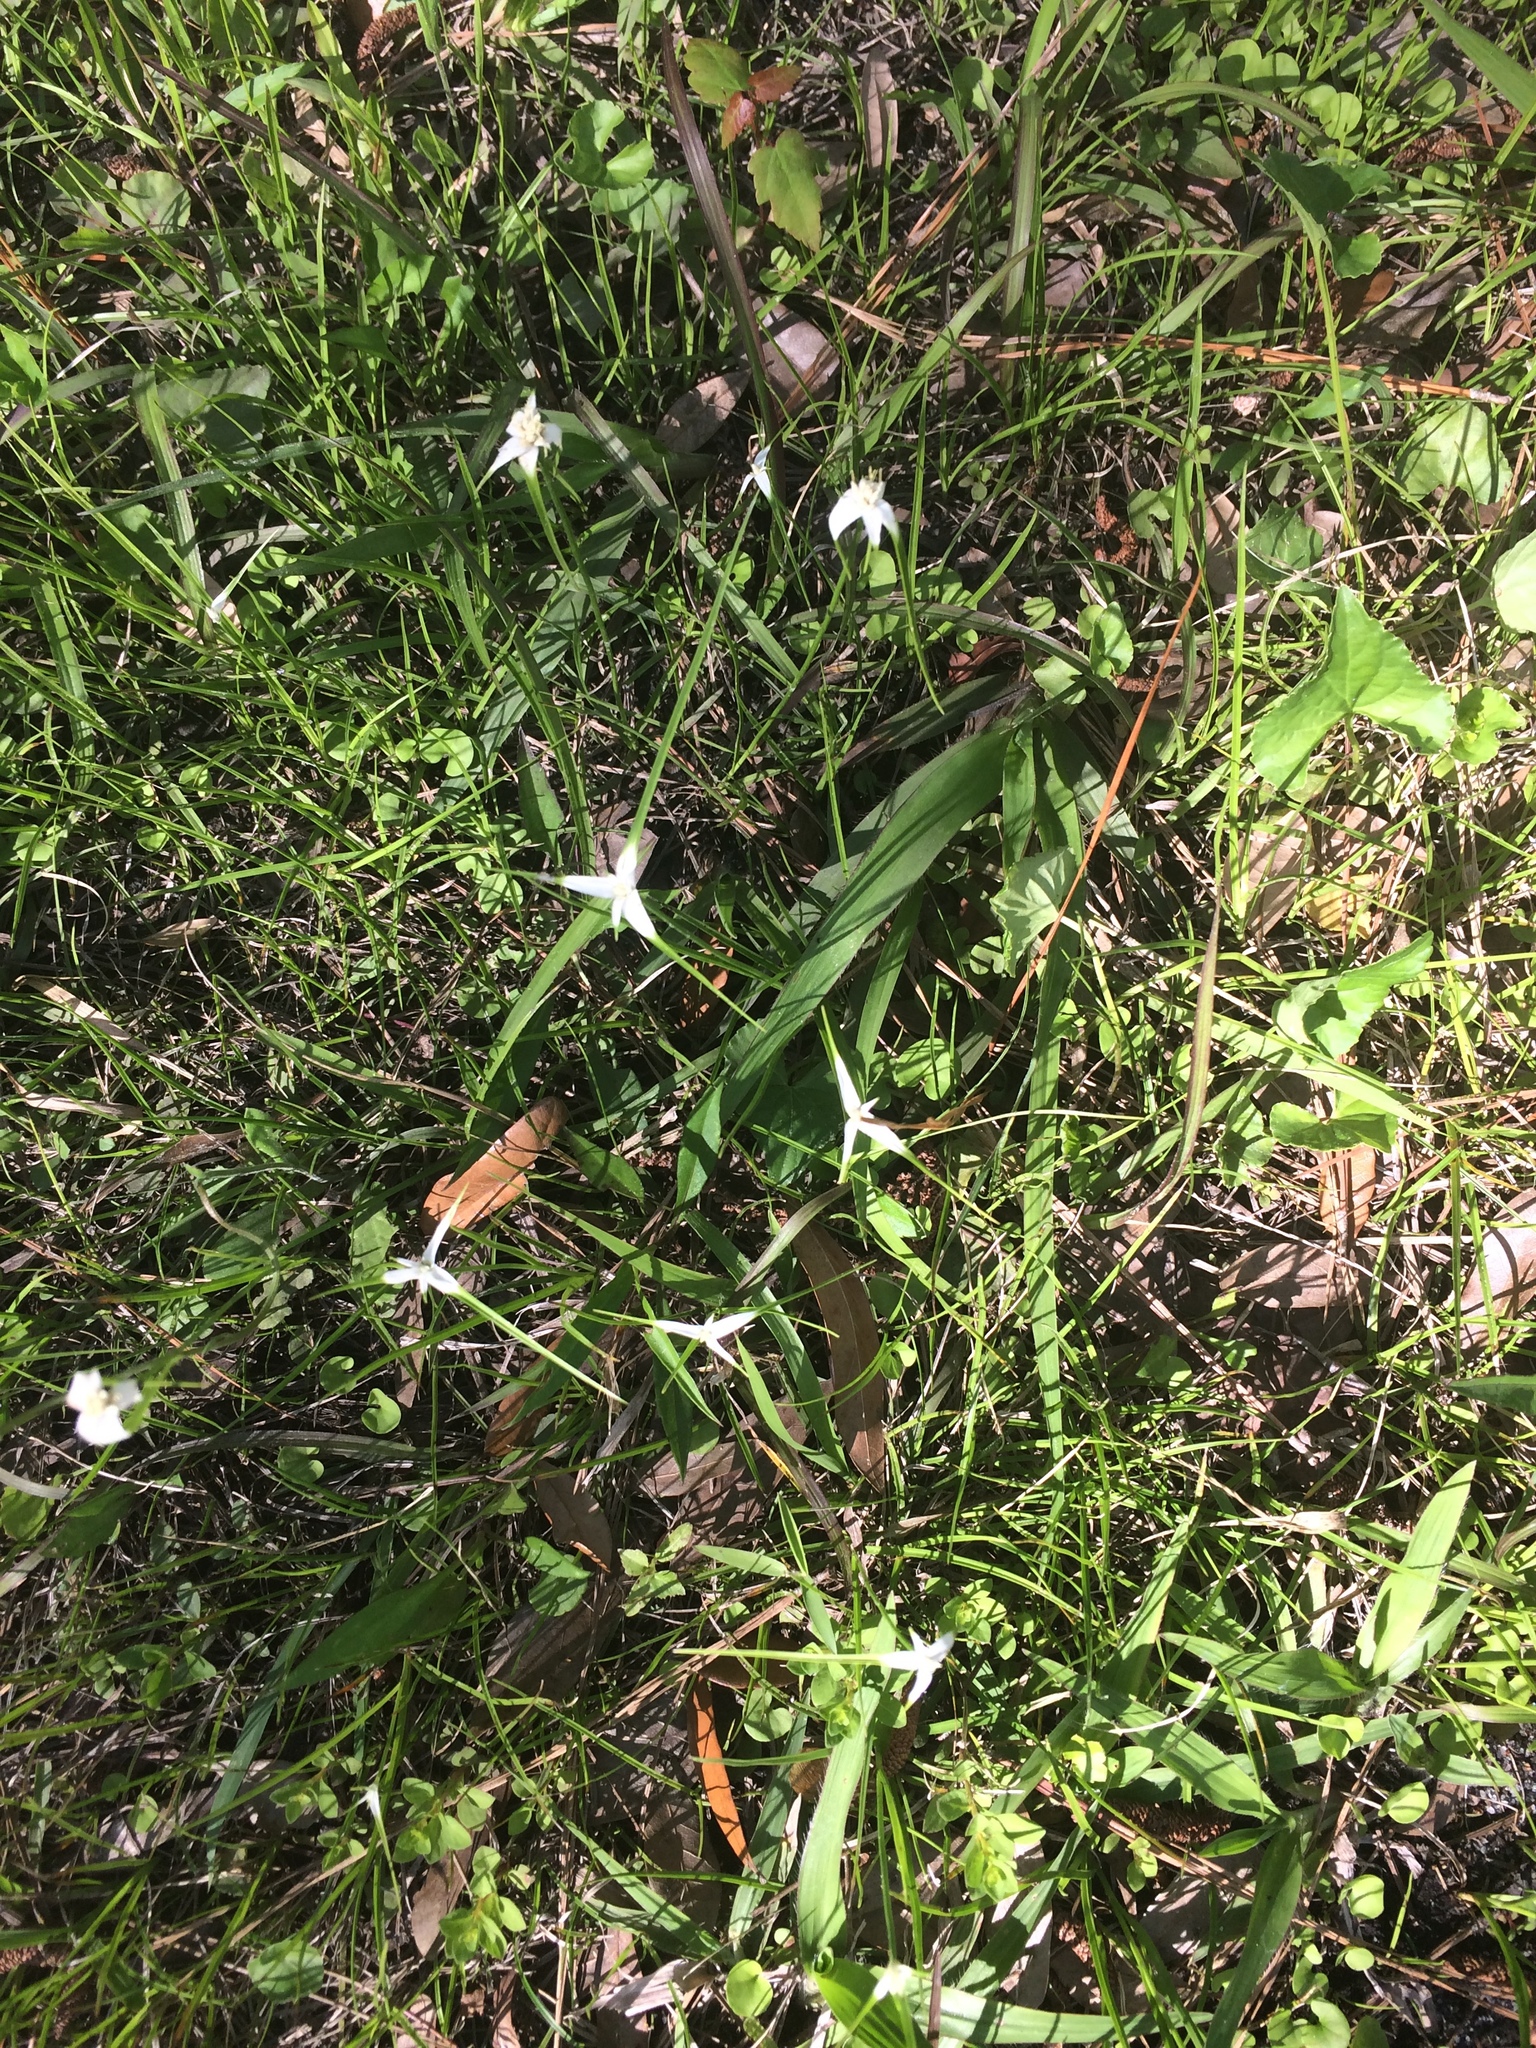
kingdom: Plantae
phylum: Tracheophyta
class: Liliopsida
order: Poales
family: Cyperaceae
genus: Rhynchospora
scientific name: Rhynchospora colorata
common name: Star sedge
